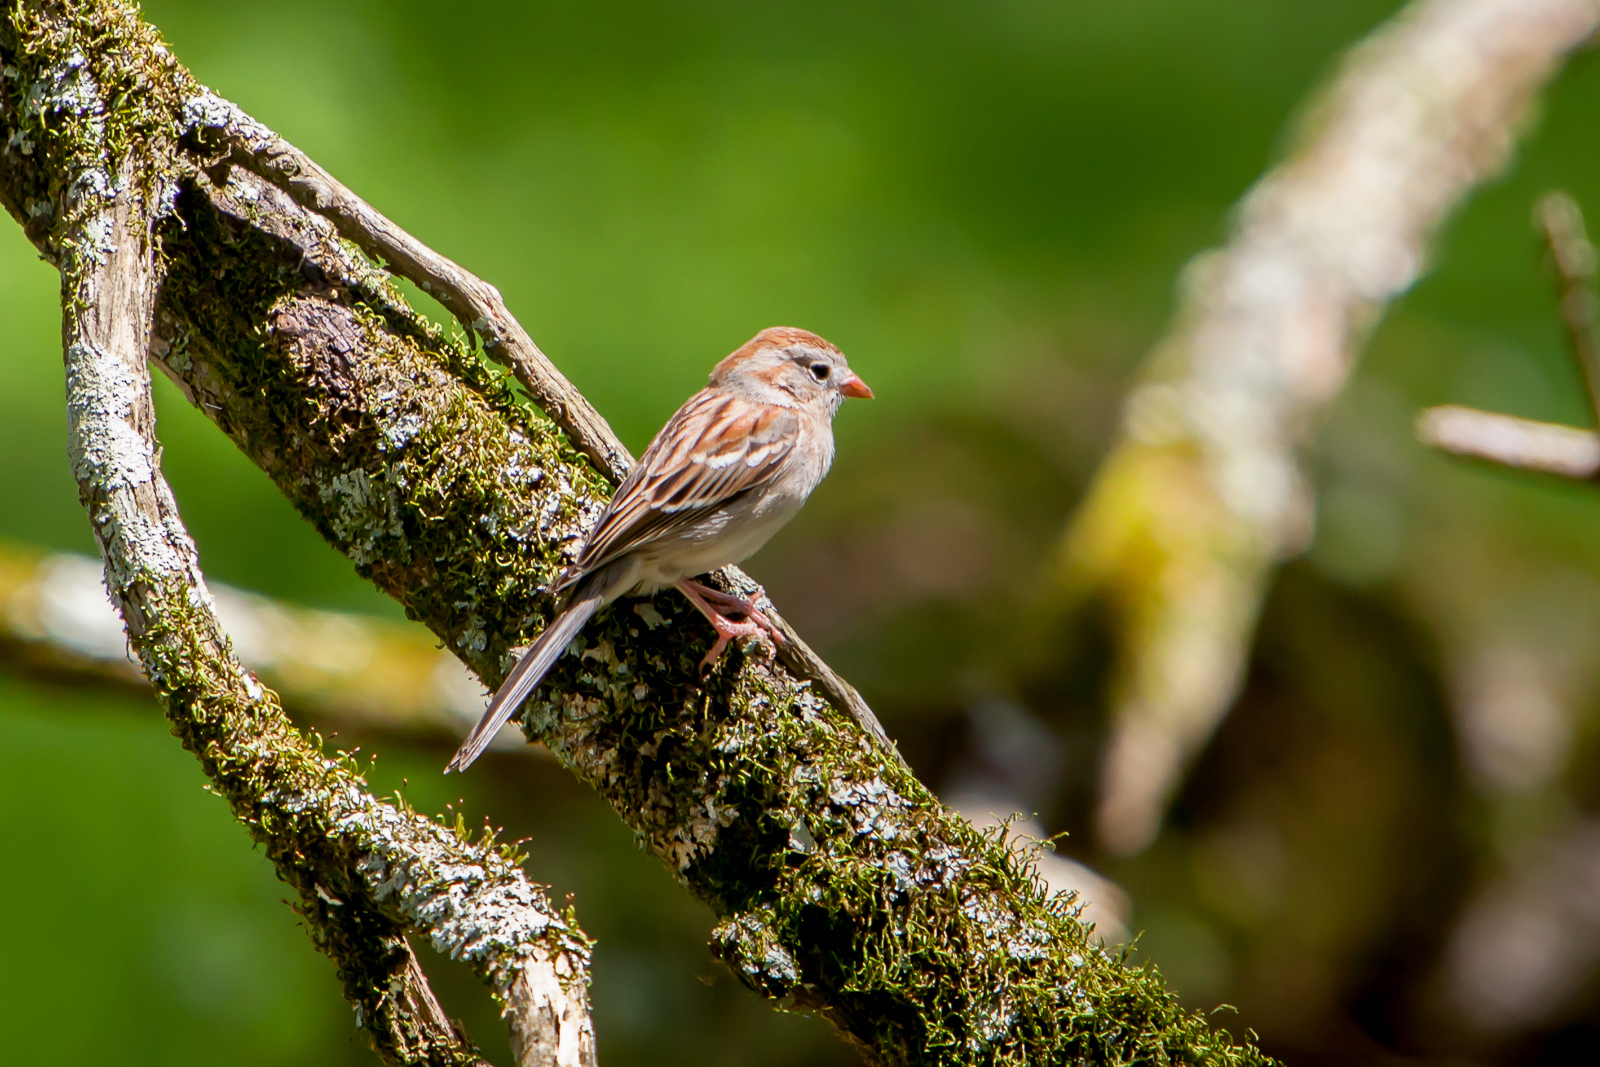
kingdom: Animalia
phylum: Chordata
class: Aves
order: Passeriformes
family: Passerellidae
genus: Spizella
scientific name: Spizella pusilla
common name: Field sparrow
